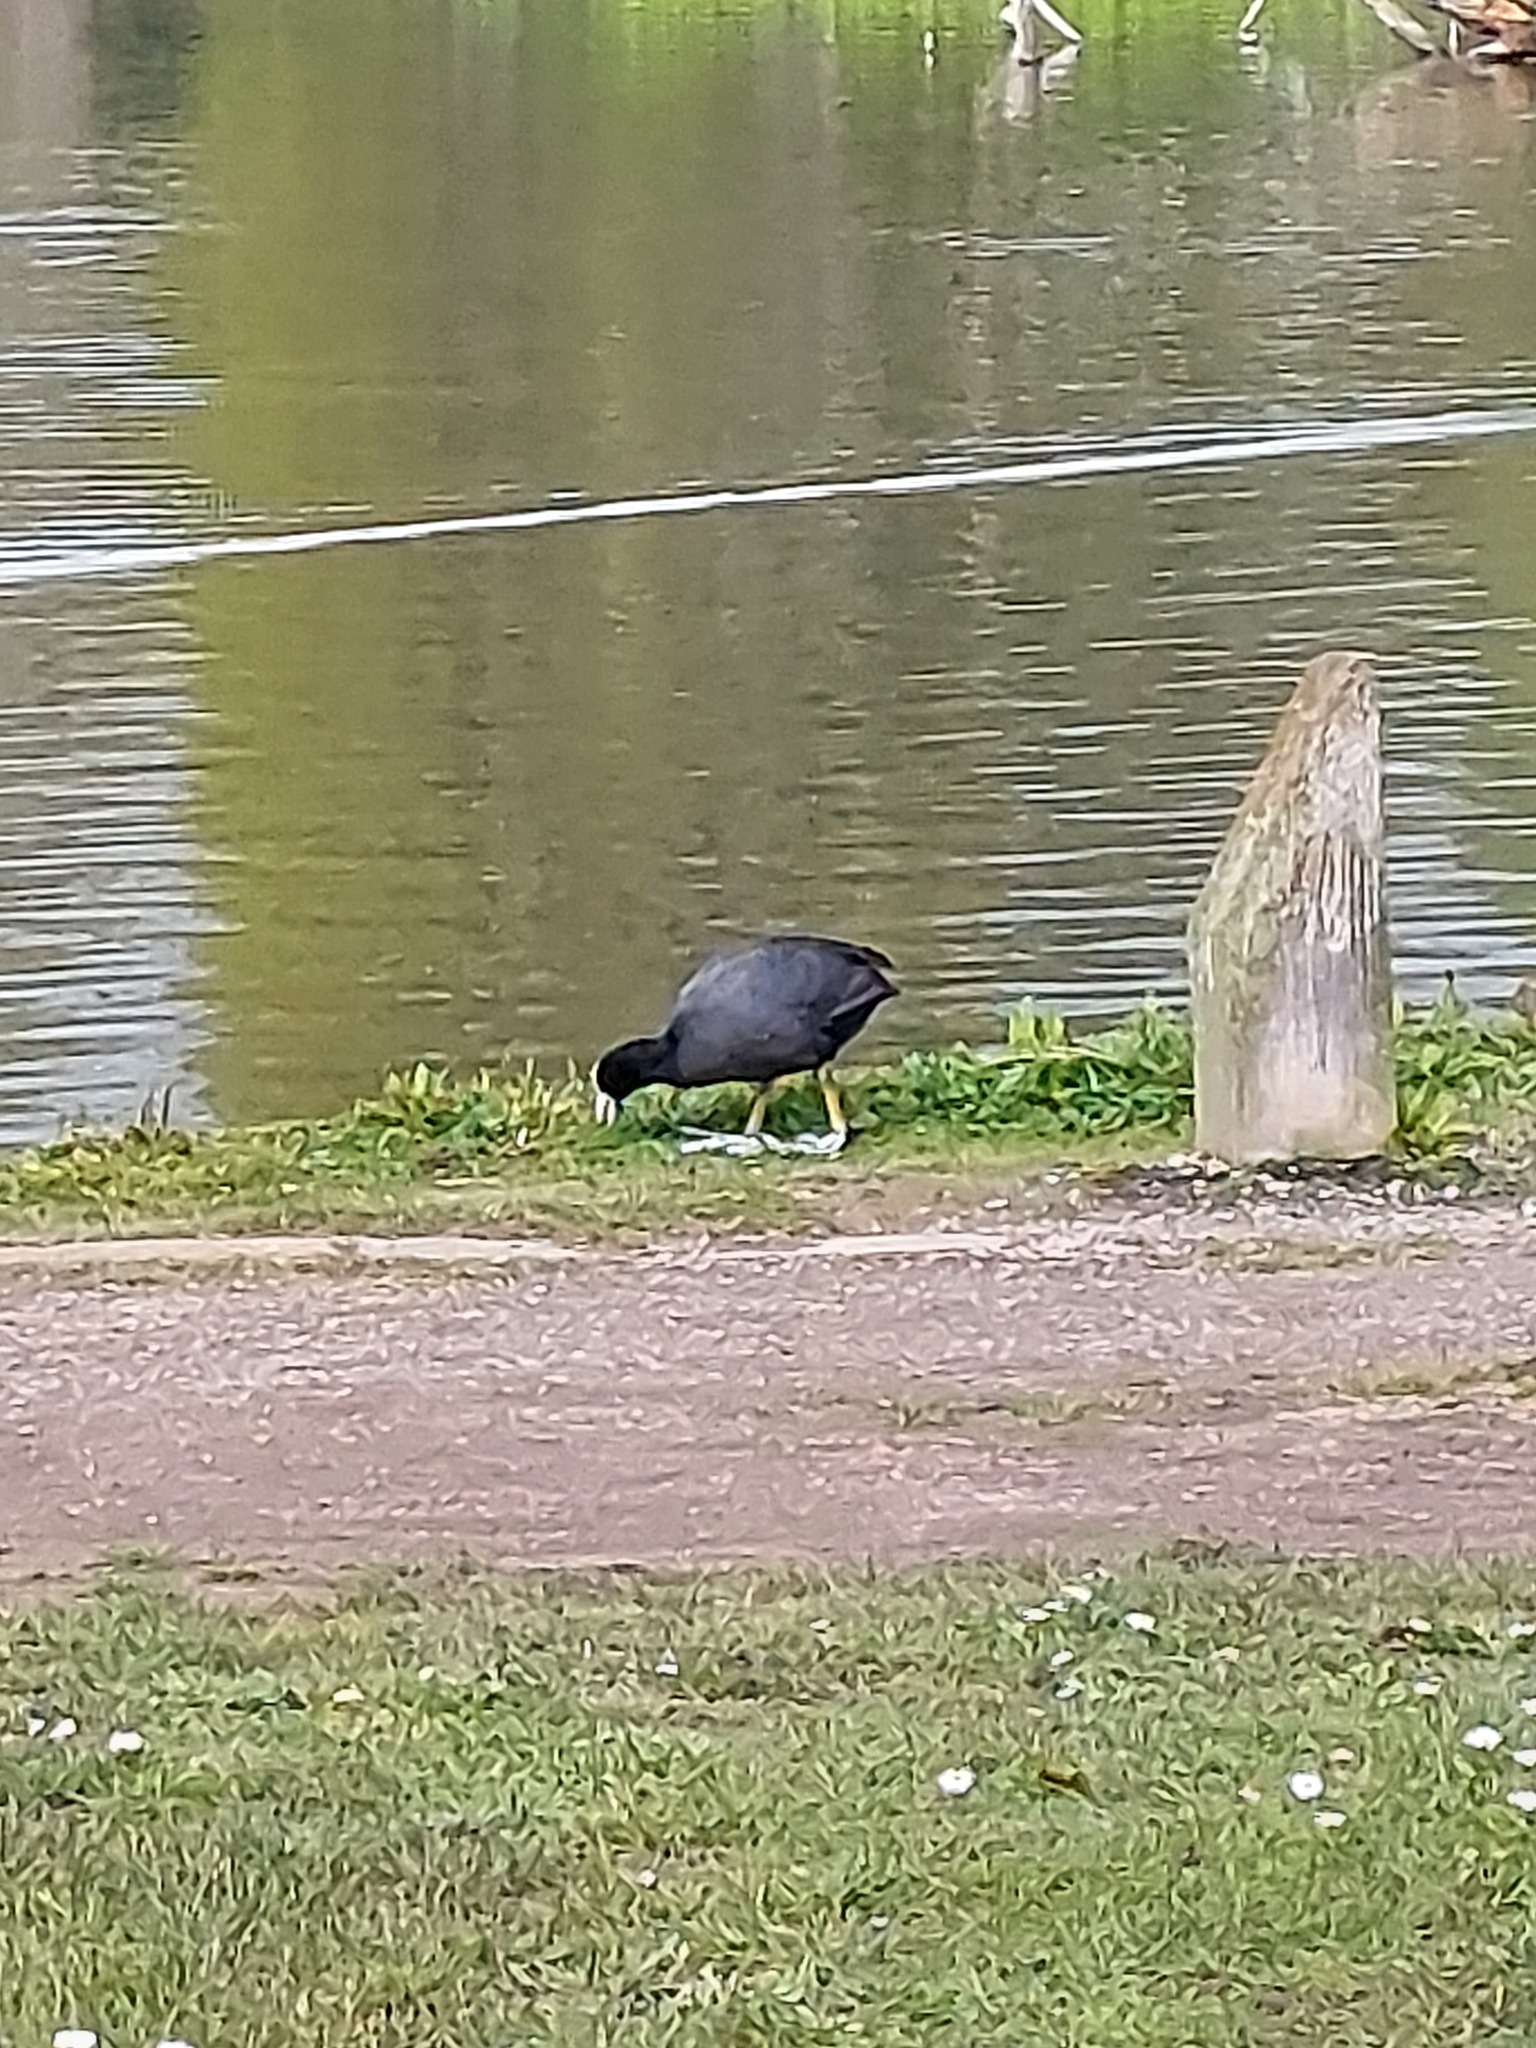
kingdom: Animalia
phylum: Chordata
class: Aves
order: Gruiformes
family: Rallidae
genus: Fulica
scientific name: Fulica atra
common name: Eurasian coot
